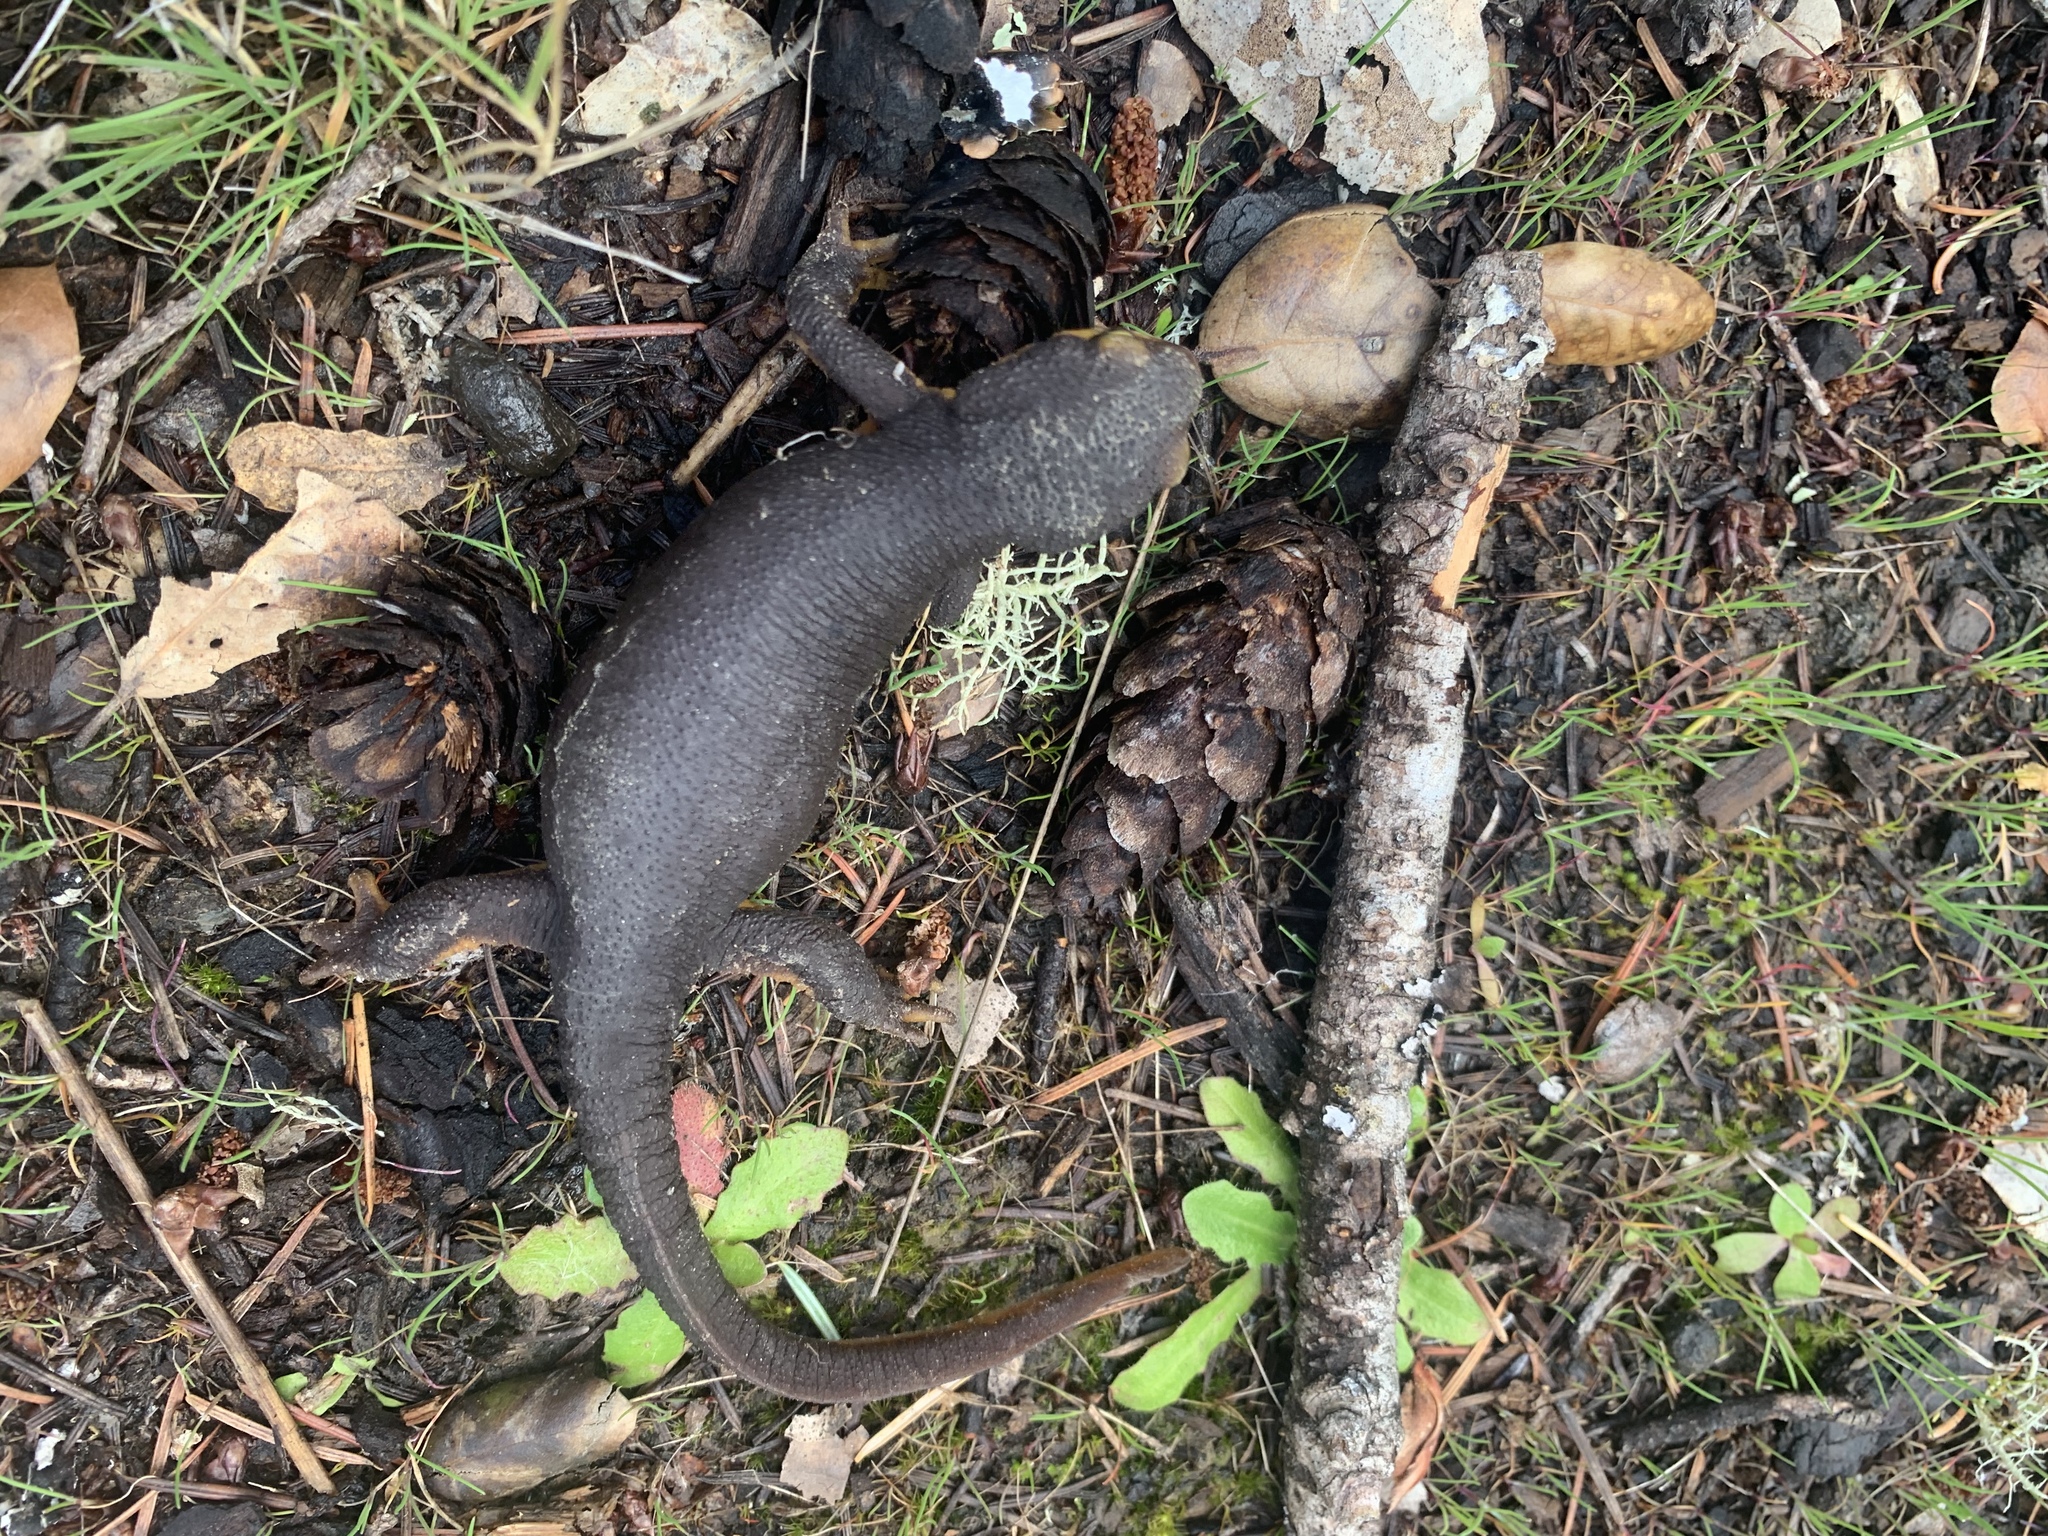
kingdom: Animalia
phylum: Chordata
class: Amphibia
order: Caudata
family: Salamandridae
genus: Taricha
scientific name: Taricha granulosa
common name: Roughskin newt
